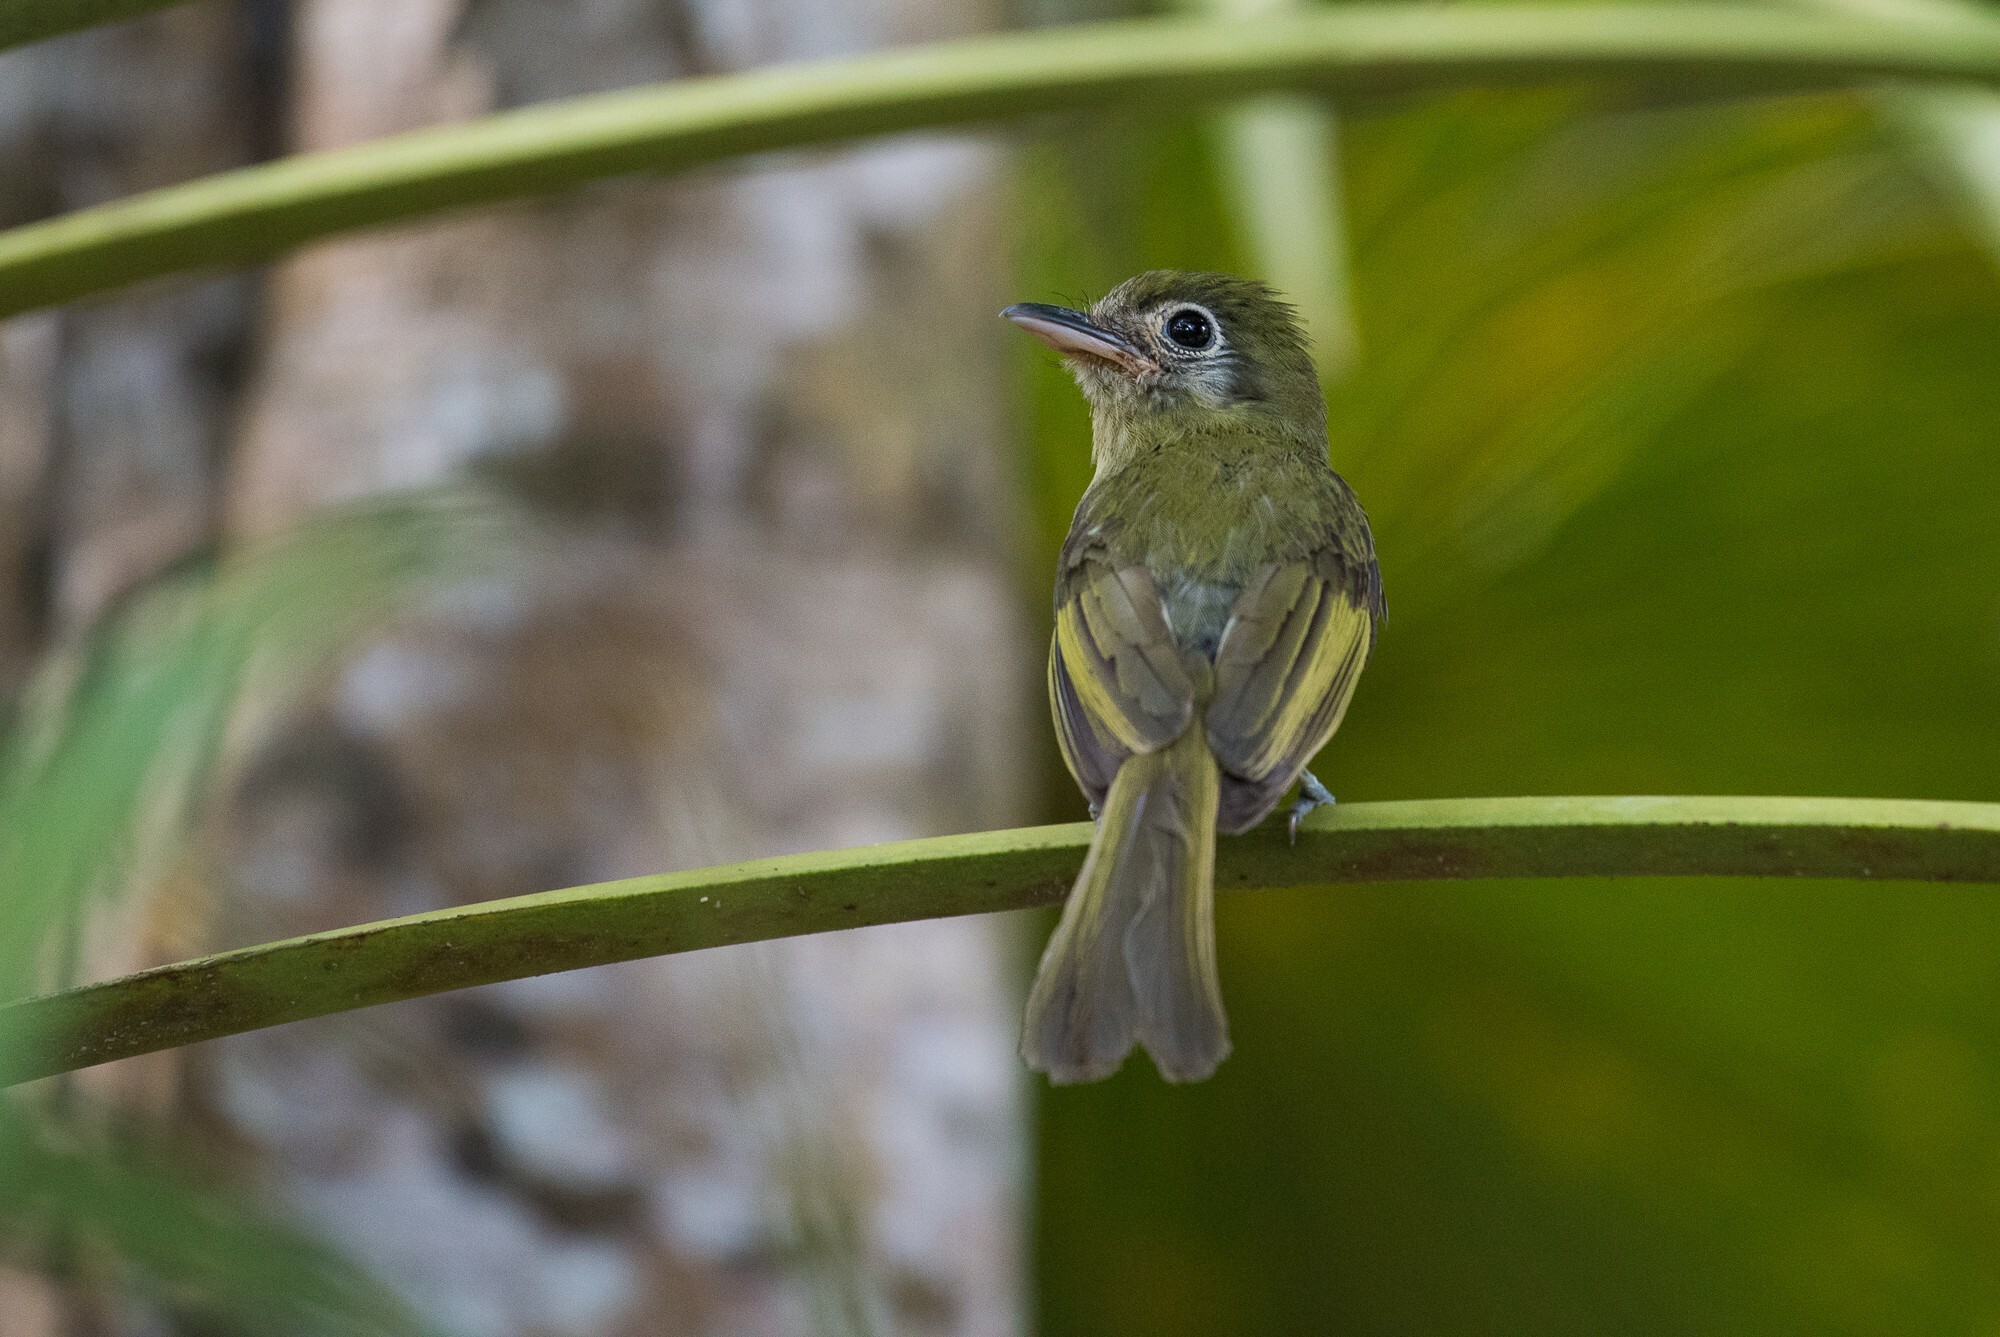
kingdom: Animalia
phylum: Chordata
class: Aves
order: Passeriformes
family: Tyrannidae
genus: Rhynchocyclus
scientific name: Rhynchocyclus brevirostris
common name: Eye-ringed flatbill
